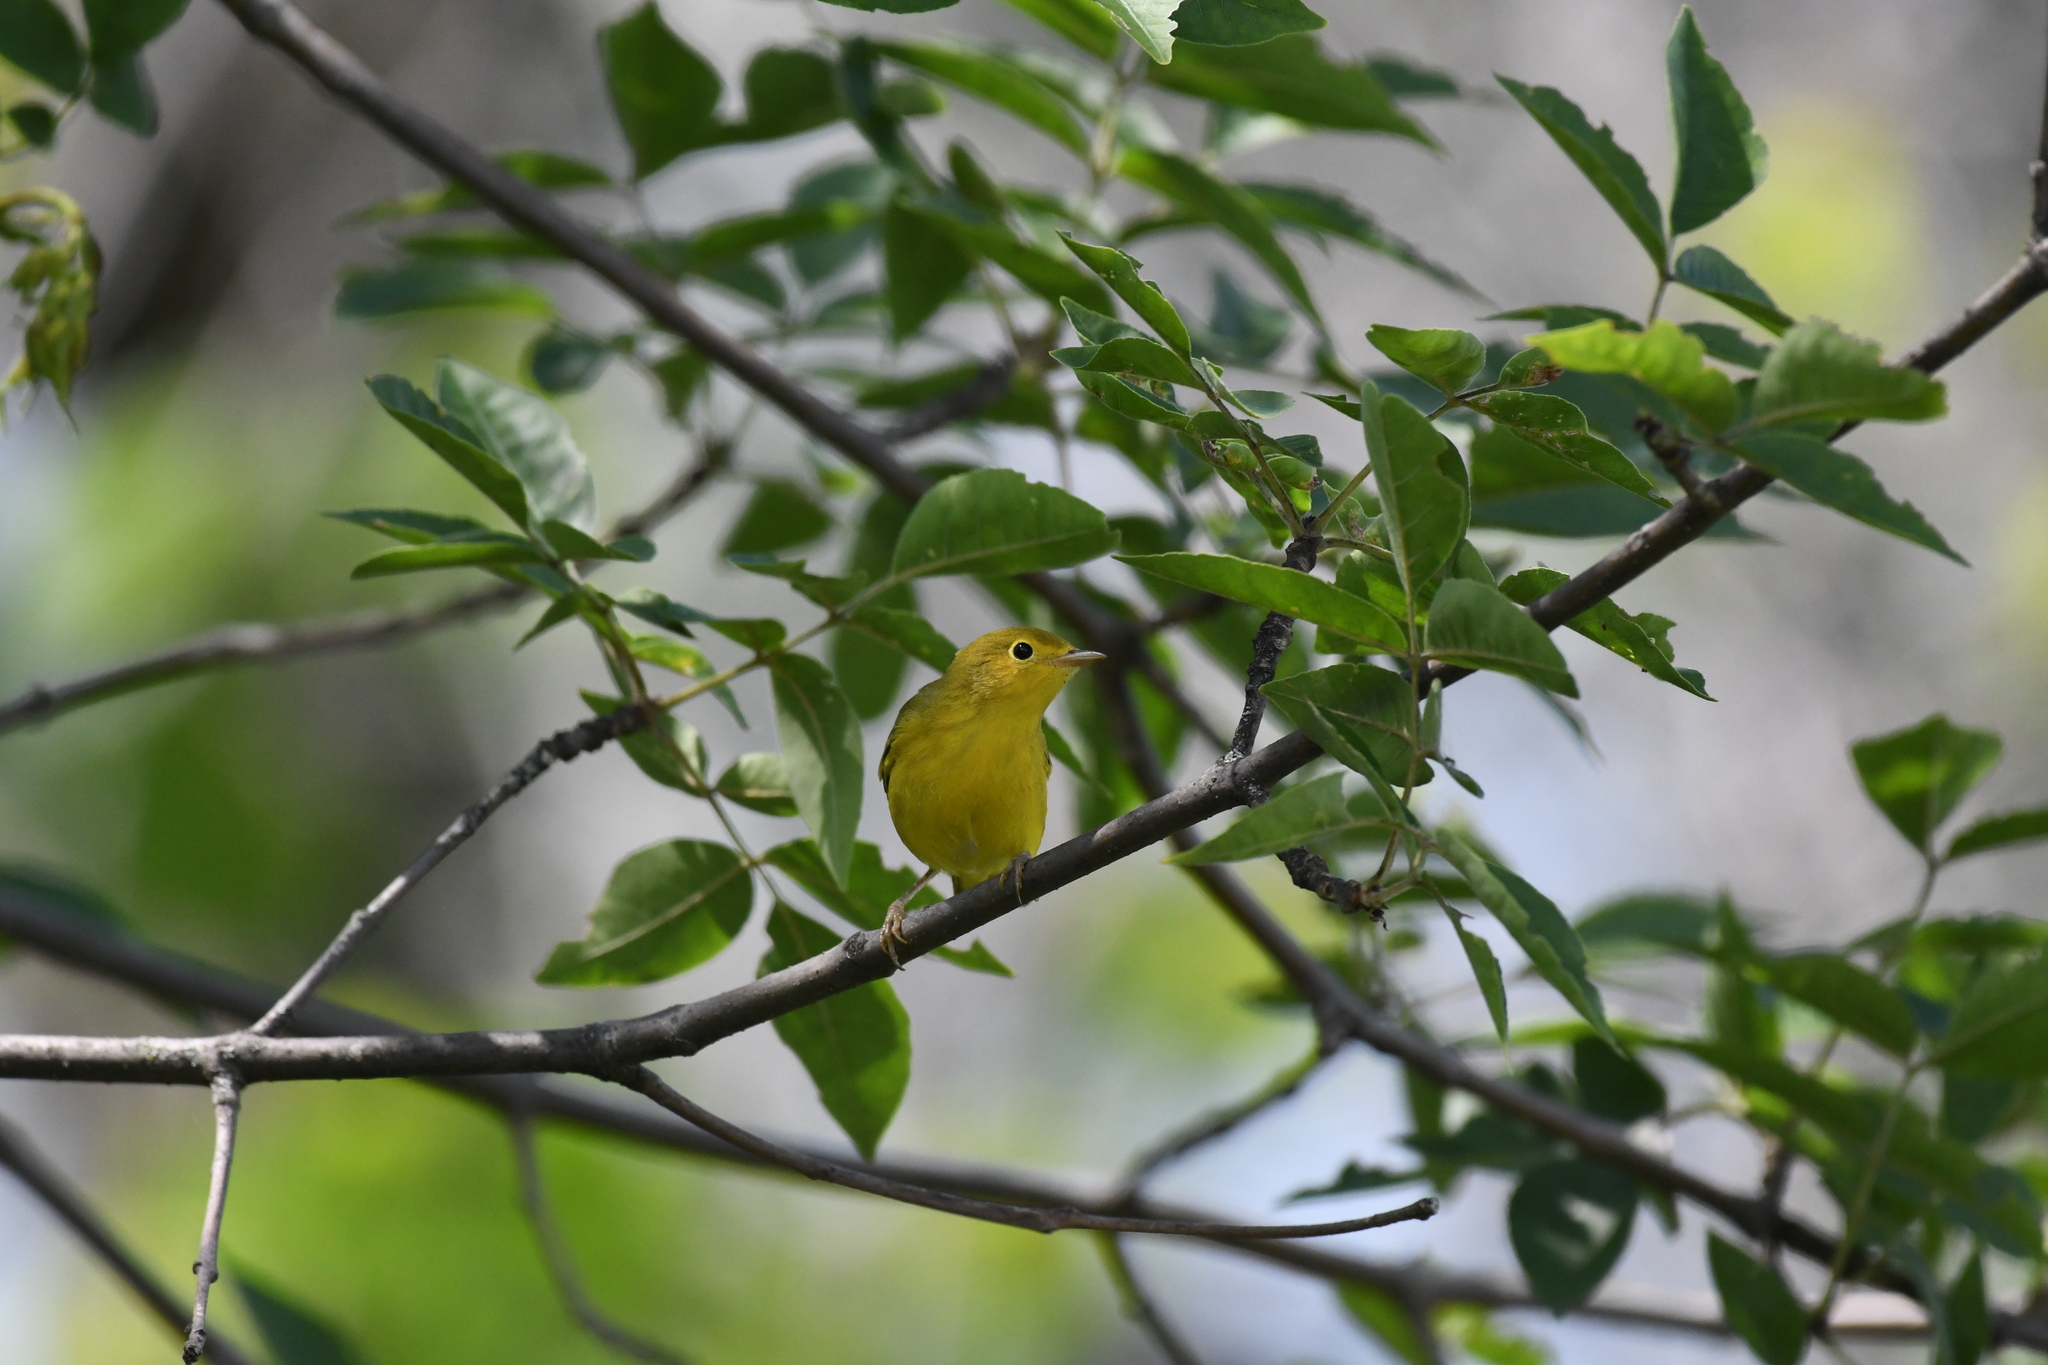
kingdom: Animalia
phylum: Chordata
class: Aves
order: Passeriformes
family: Parulidae
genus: Setophaga
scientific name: Setophaga petechia
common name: Yellow warbler
